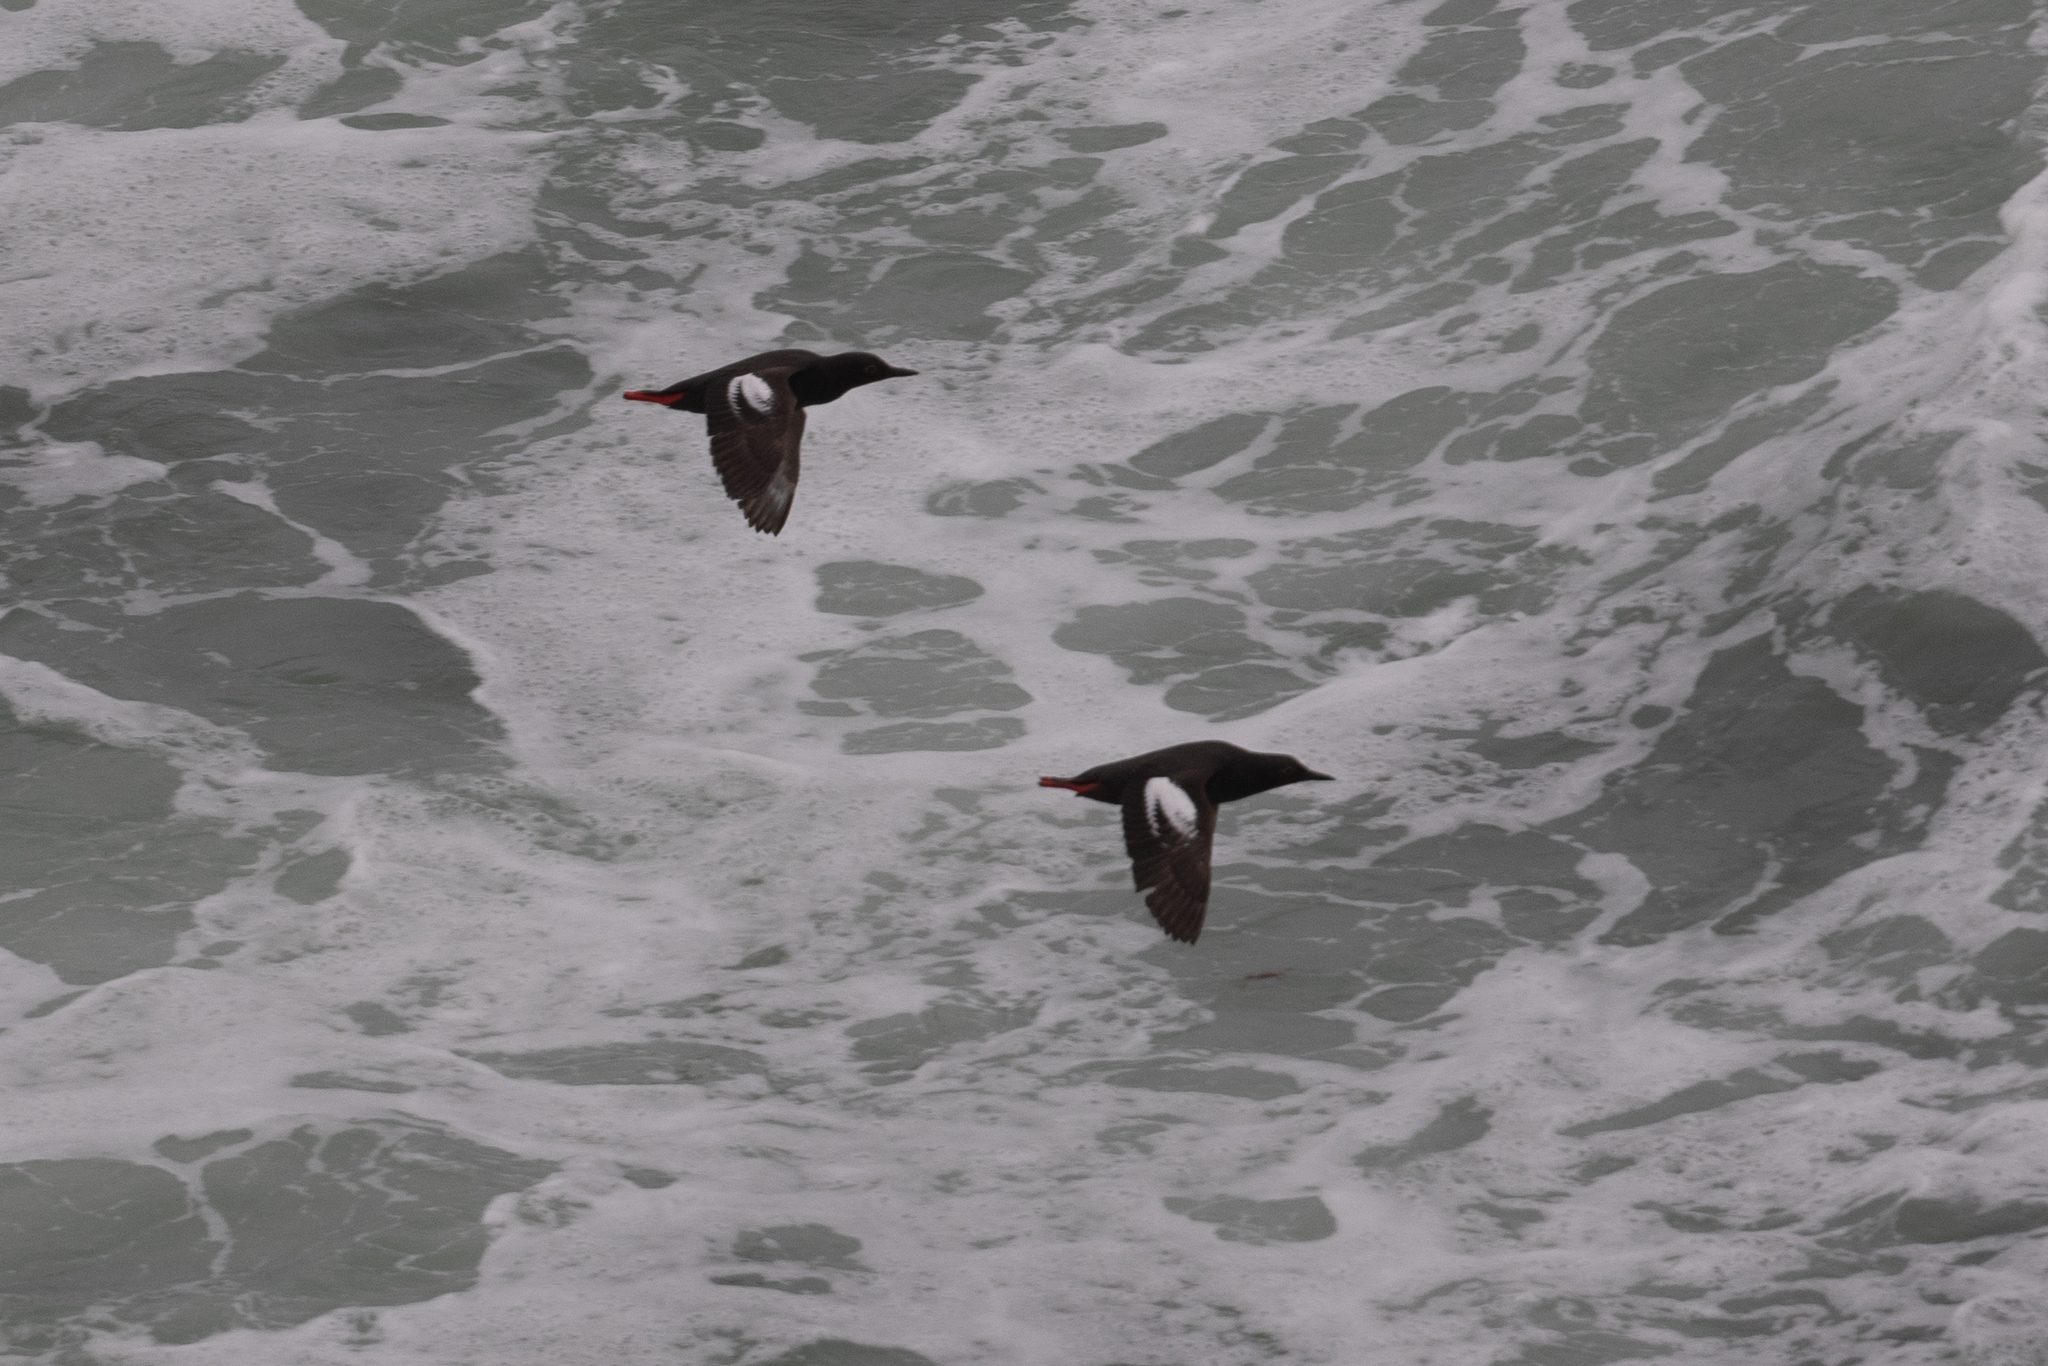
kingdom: Animalia
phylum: Chordata
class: Aves
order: Charadriiformes
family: Alcidae
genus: Cepphus
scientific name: Cepphus columba
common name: Pigeon guillemot
